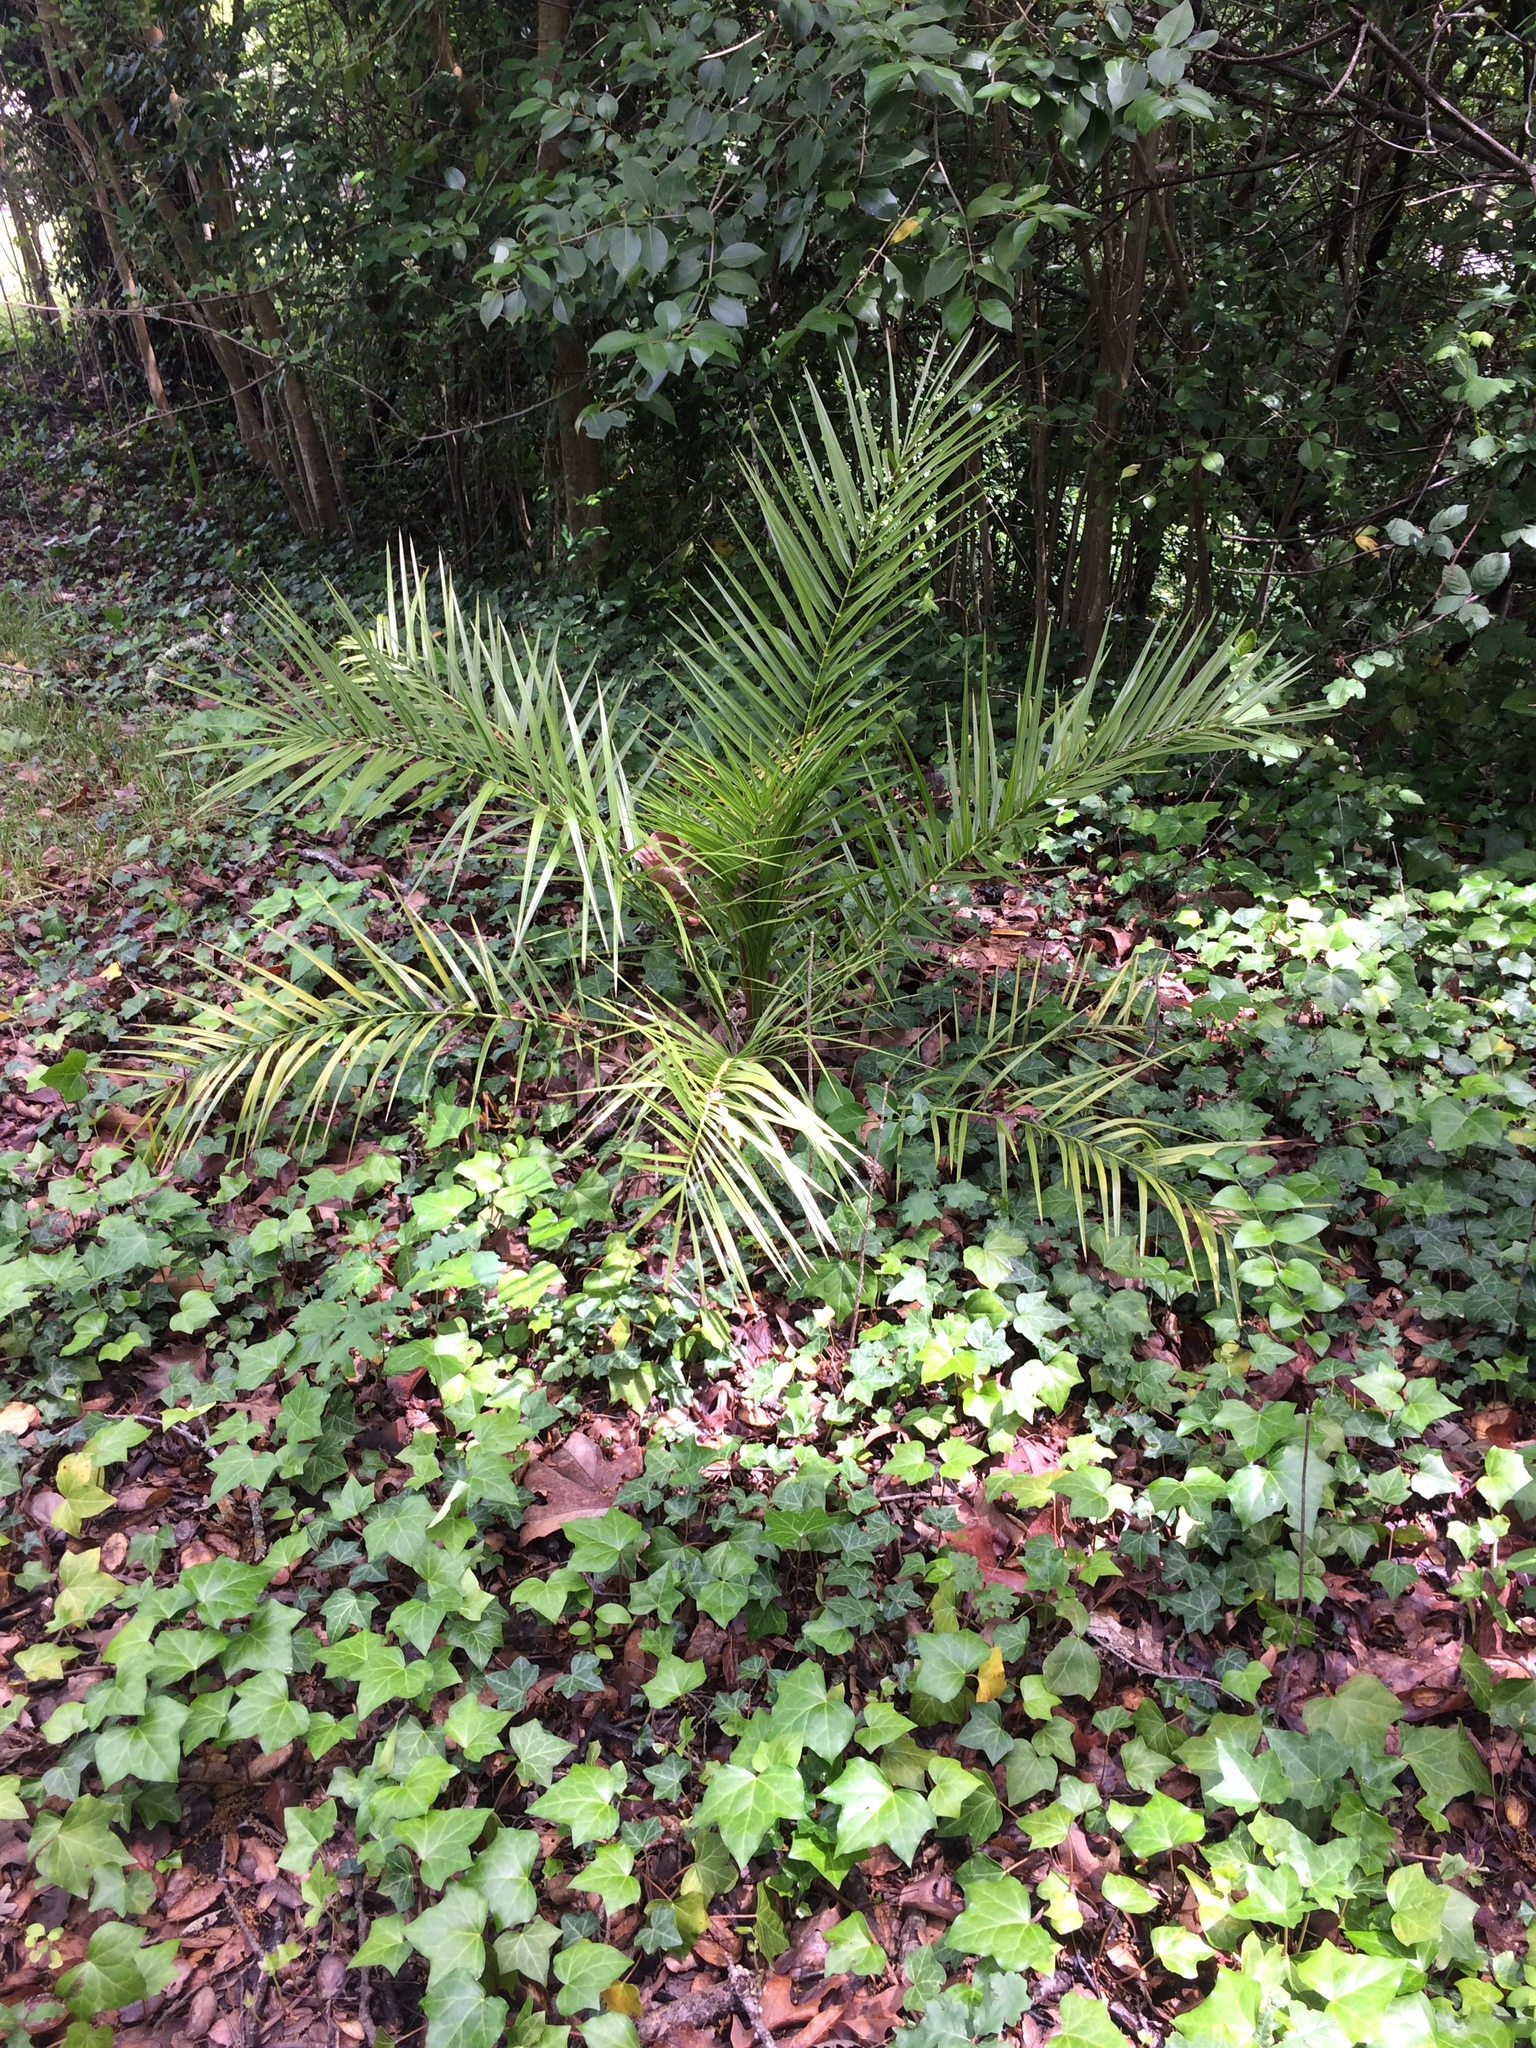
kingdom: Plantae
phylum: Tracheophyta
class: Liliopsida
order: Arecales
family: Arecaceae
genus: Phoenix
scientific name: Phoenix canariensis
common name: Canary island date palm
